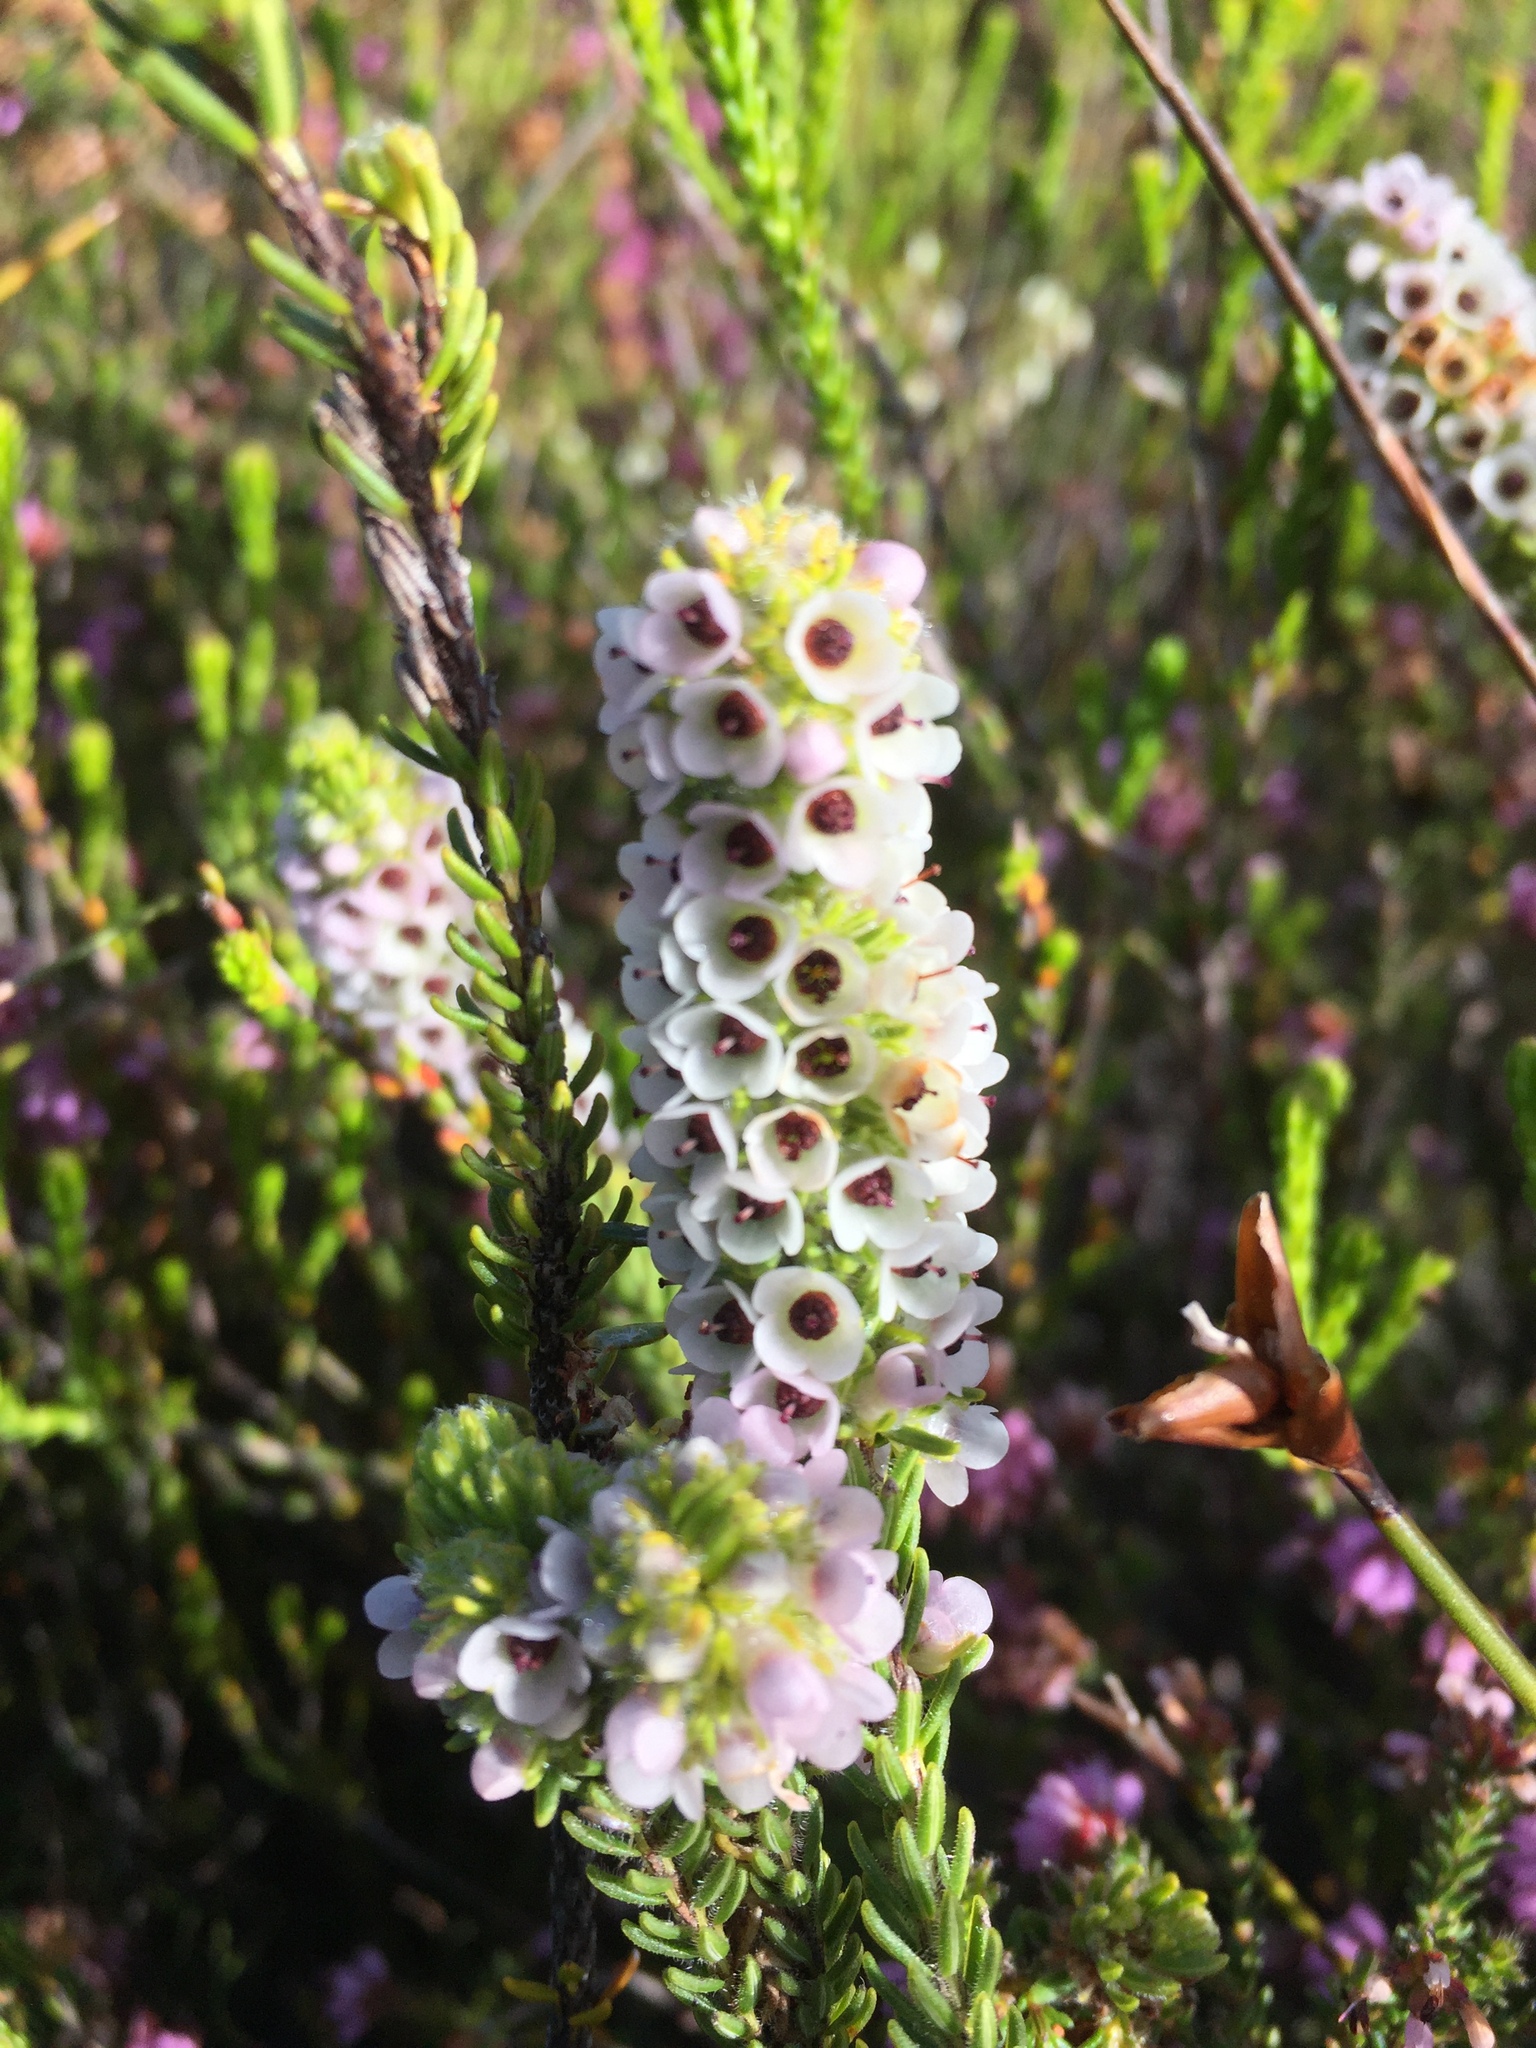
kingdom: Plantae
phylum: Tracheophyta
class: Magnoliopsida
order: Ericales
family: Ericaceae
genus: Erica
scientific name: Erica pyxidiflora
